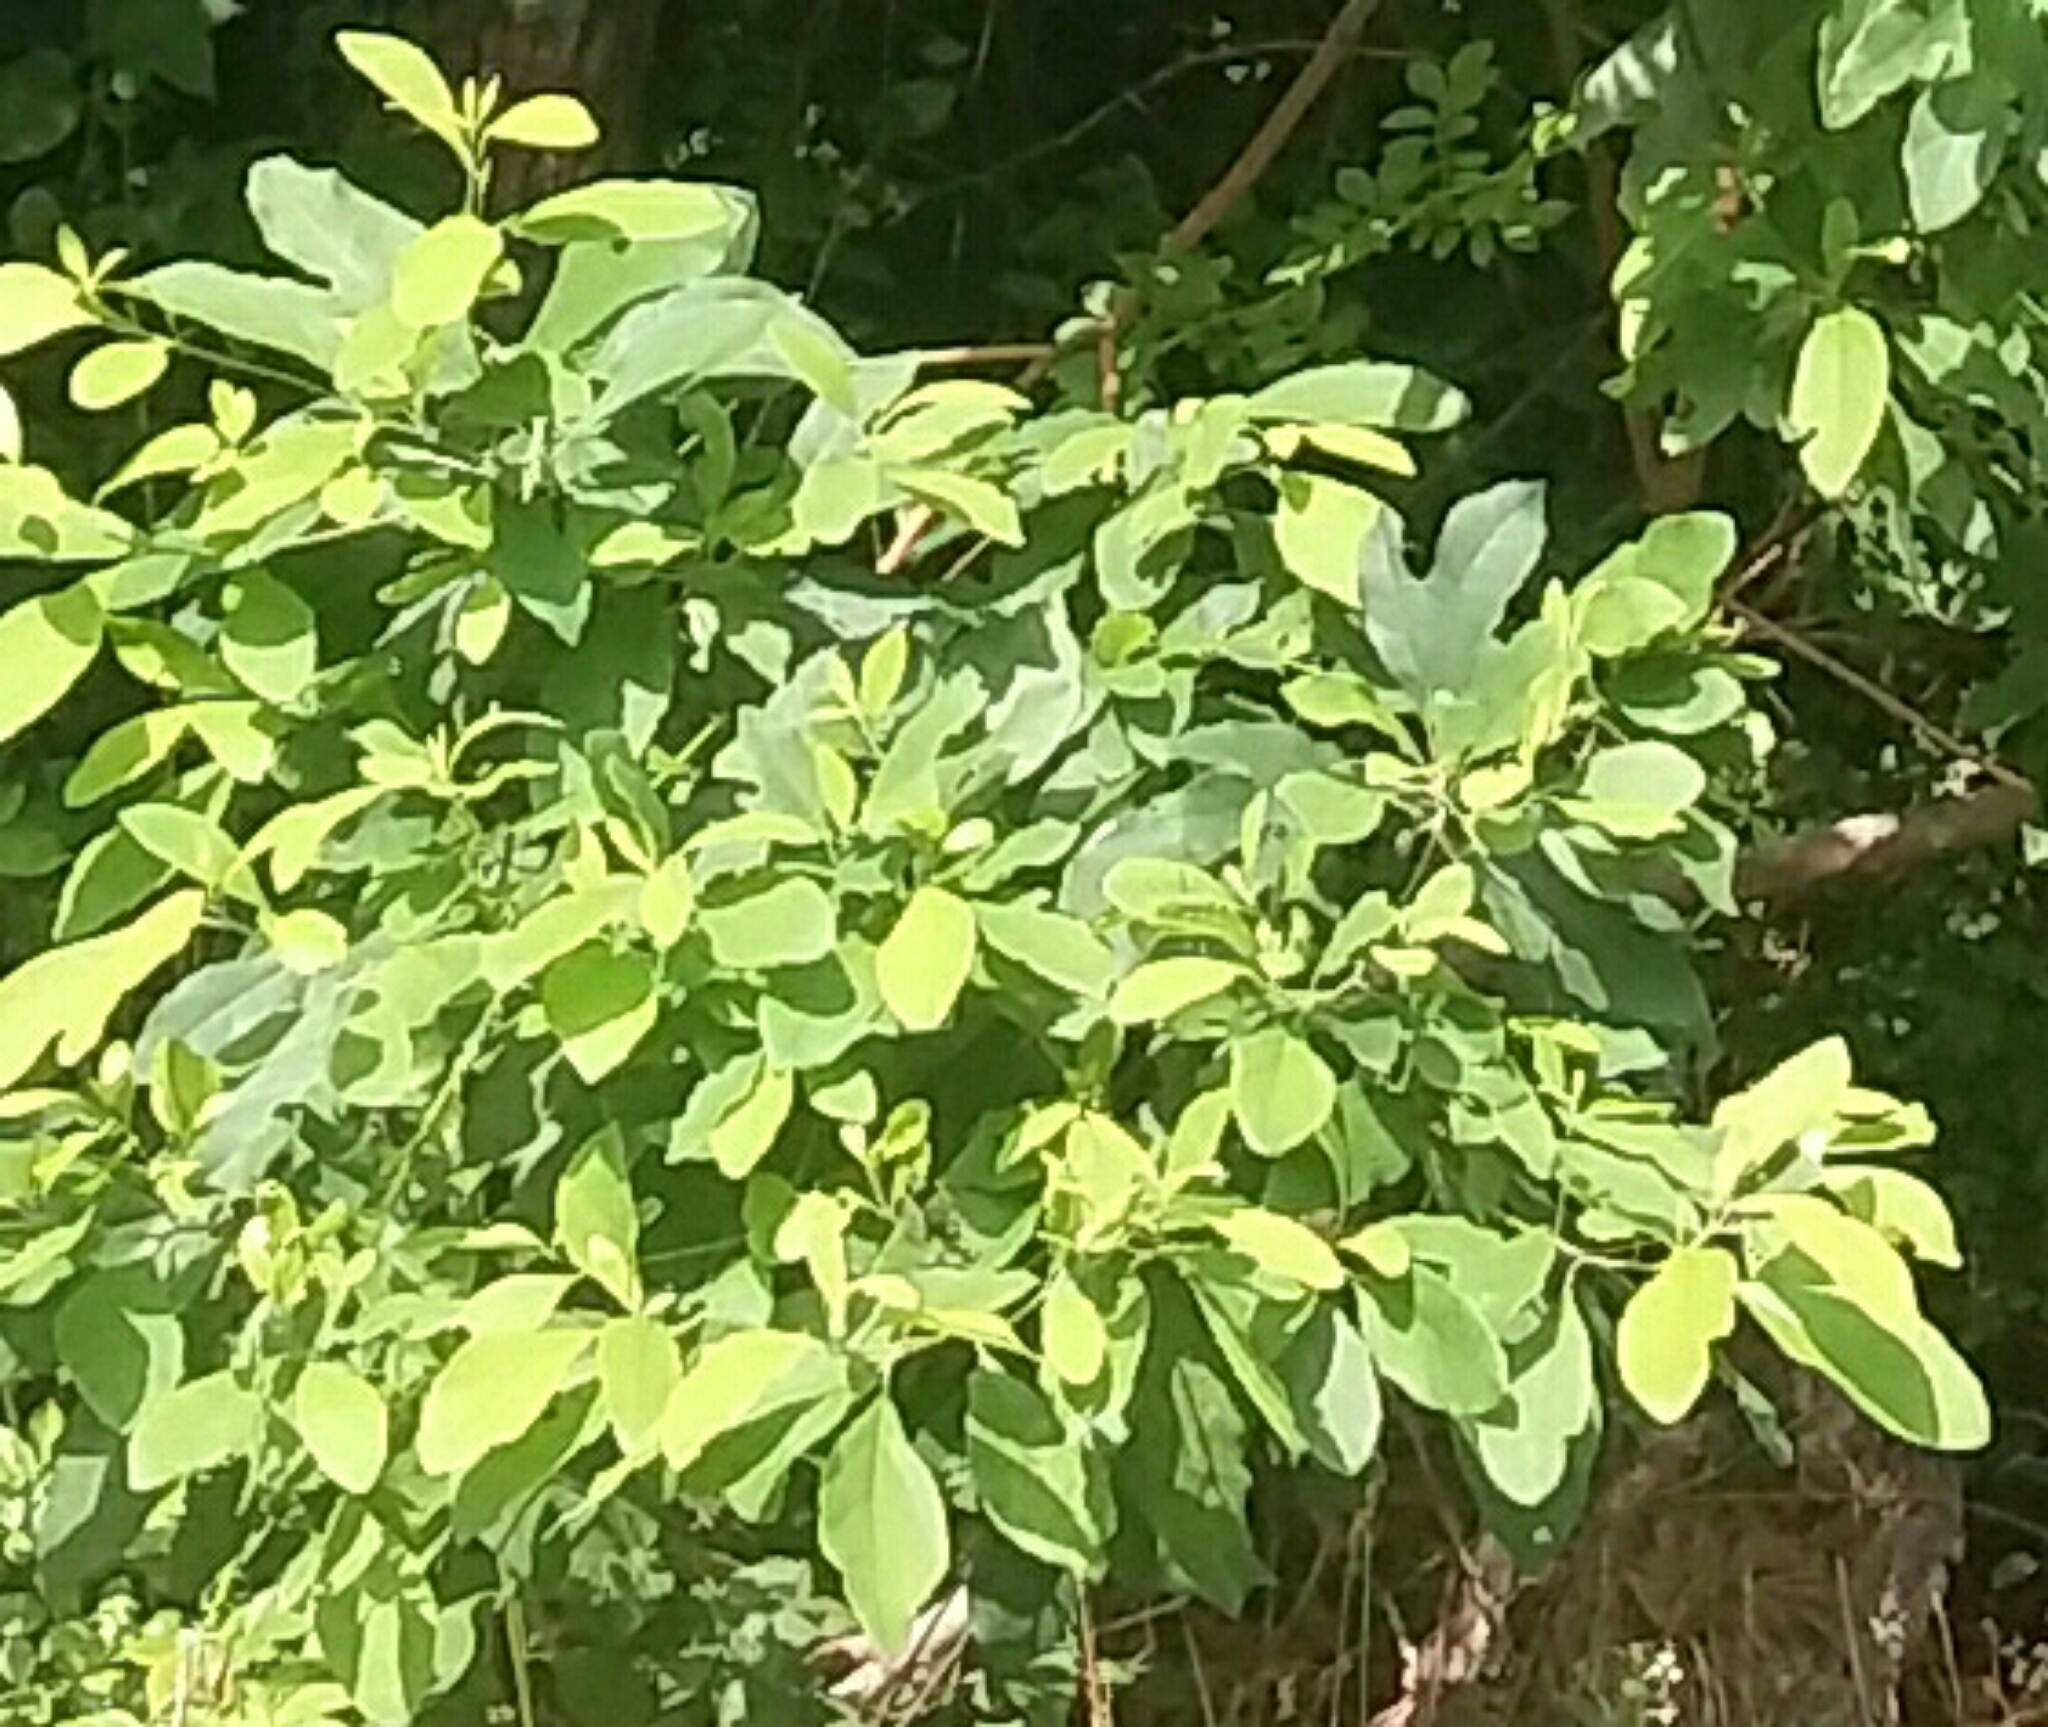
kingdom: Plantae
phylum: Tracheophyta
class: Magnoliopsida
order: Laurales
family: Lauraceae
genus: Sassafras
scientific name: Sassafras albidum
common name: Sassafras
